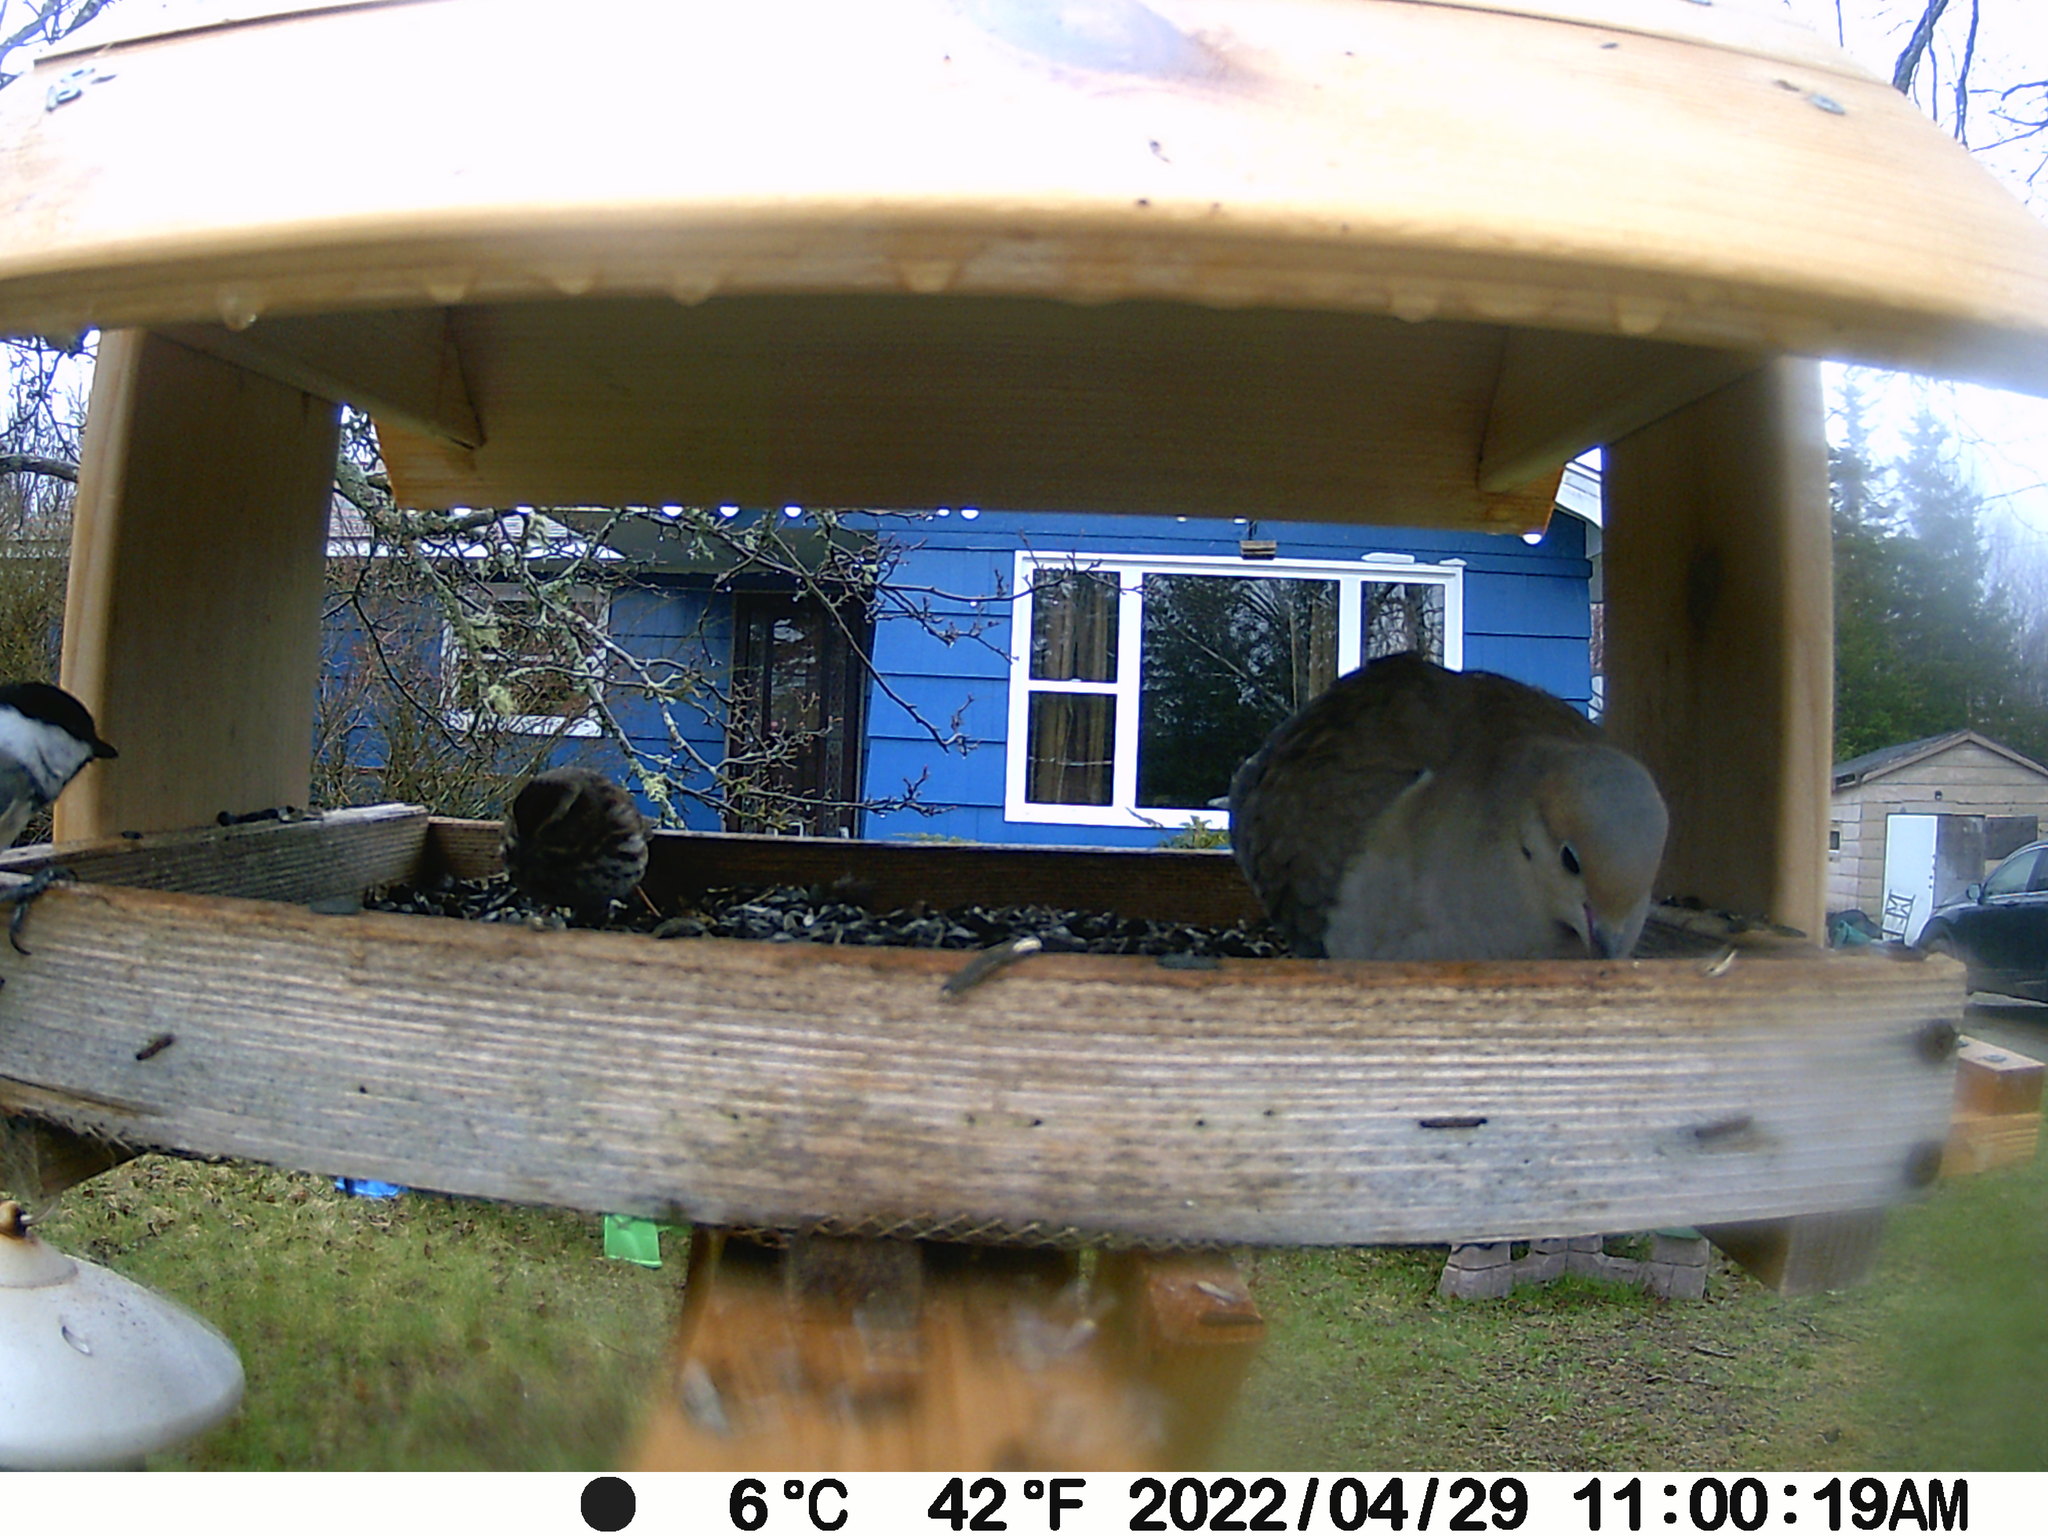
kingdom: Animalia
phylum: Chordata
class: Aves
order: Passeriformes
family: Passerellidae
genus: Melospiza
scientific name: Melospiza melodia
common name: Song sparrow
